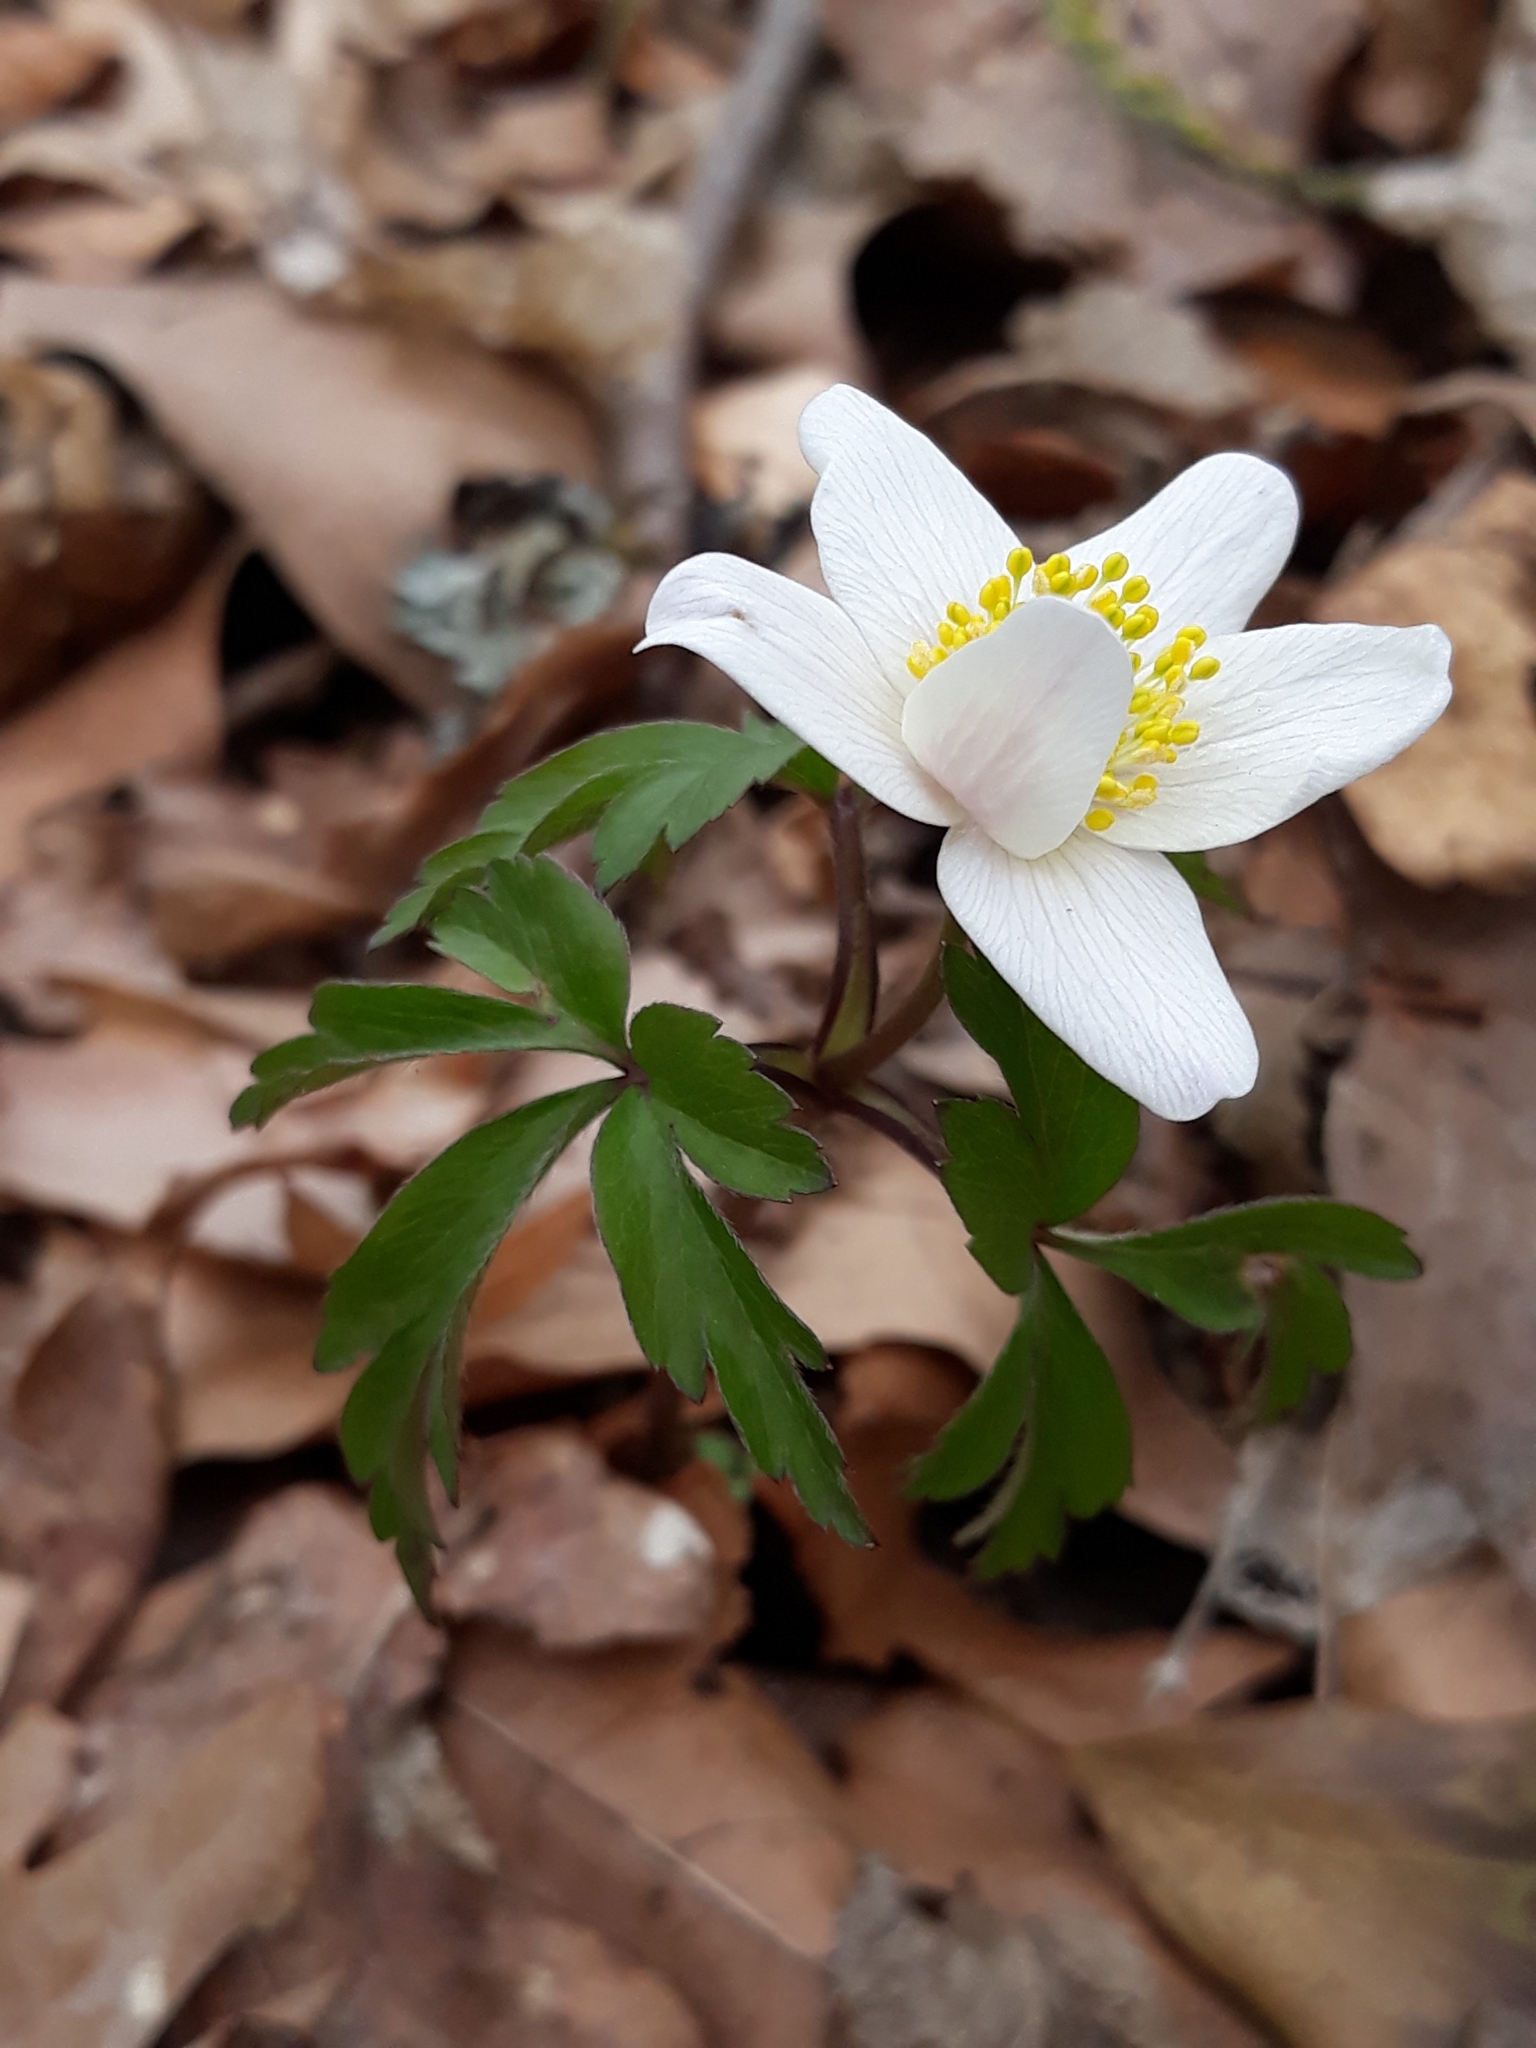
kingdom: Plantae
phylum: Tracheophyta
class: Magnoliopsida
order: Ranunculales
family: Ranunculaceae
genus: Anemone
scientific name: Anemone nemorosa
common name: Wood anemone
